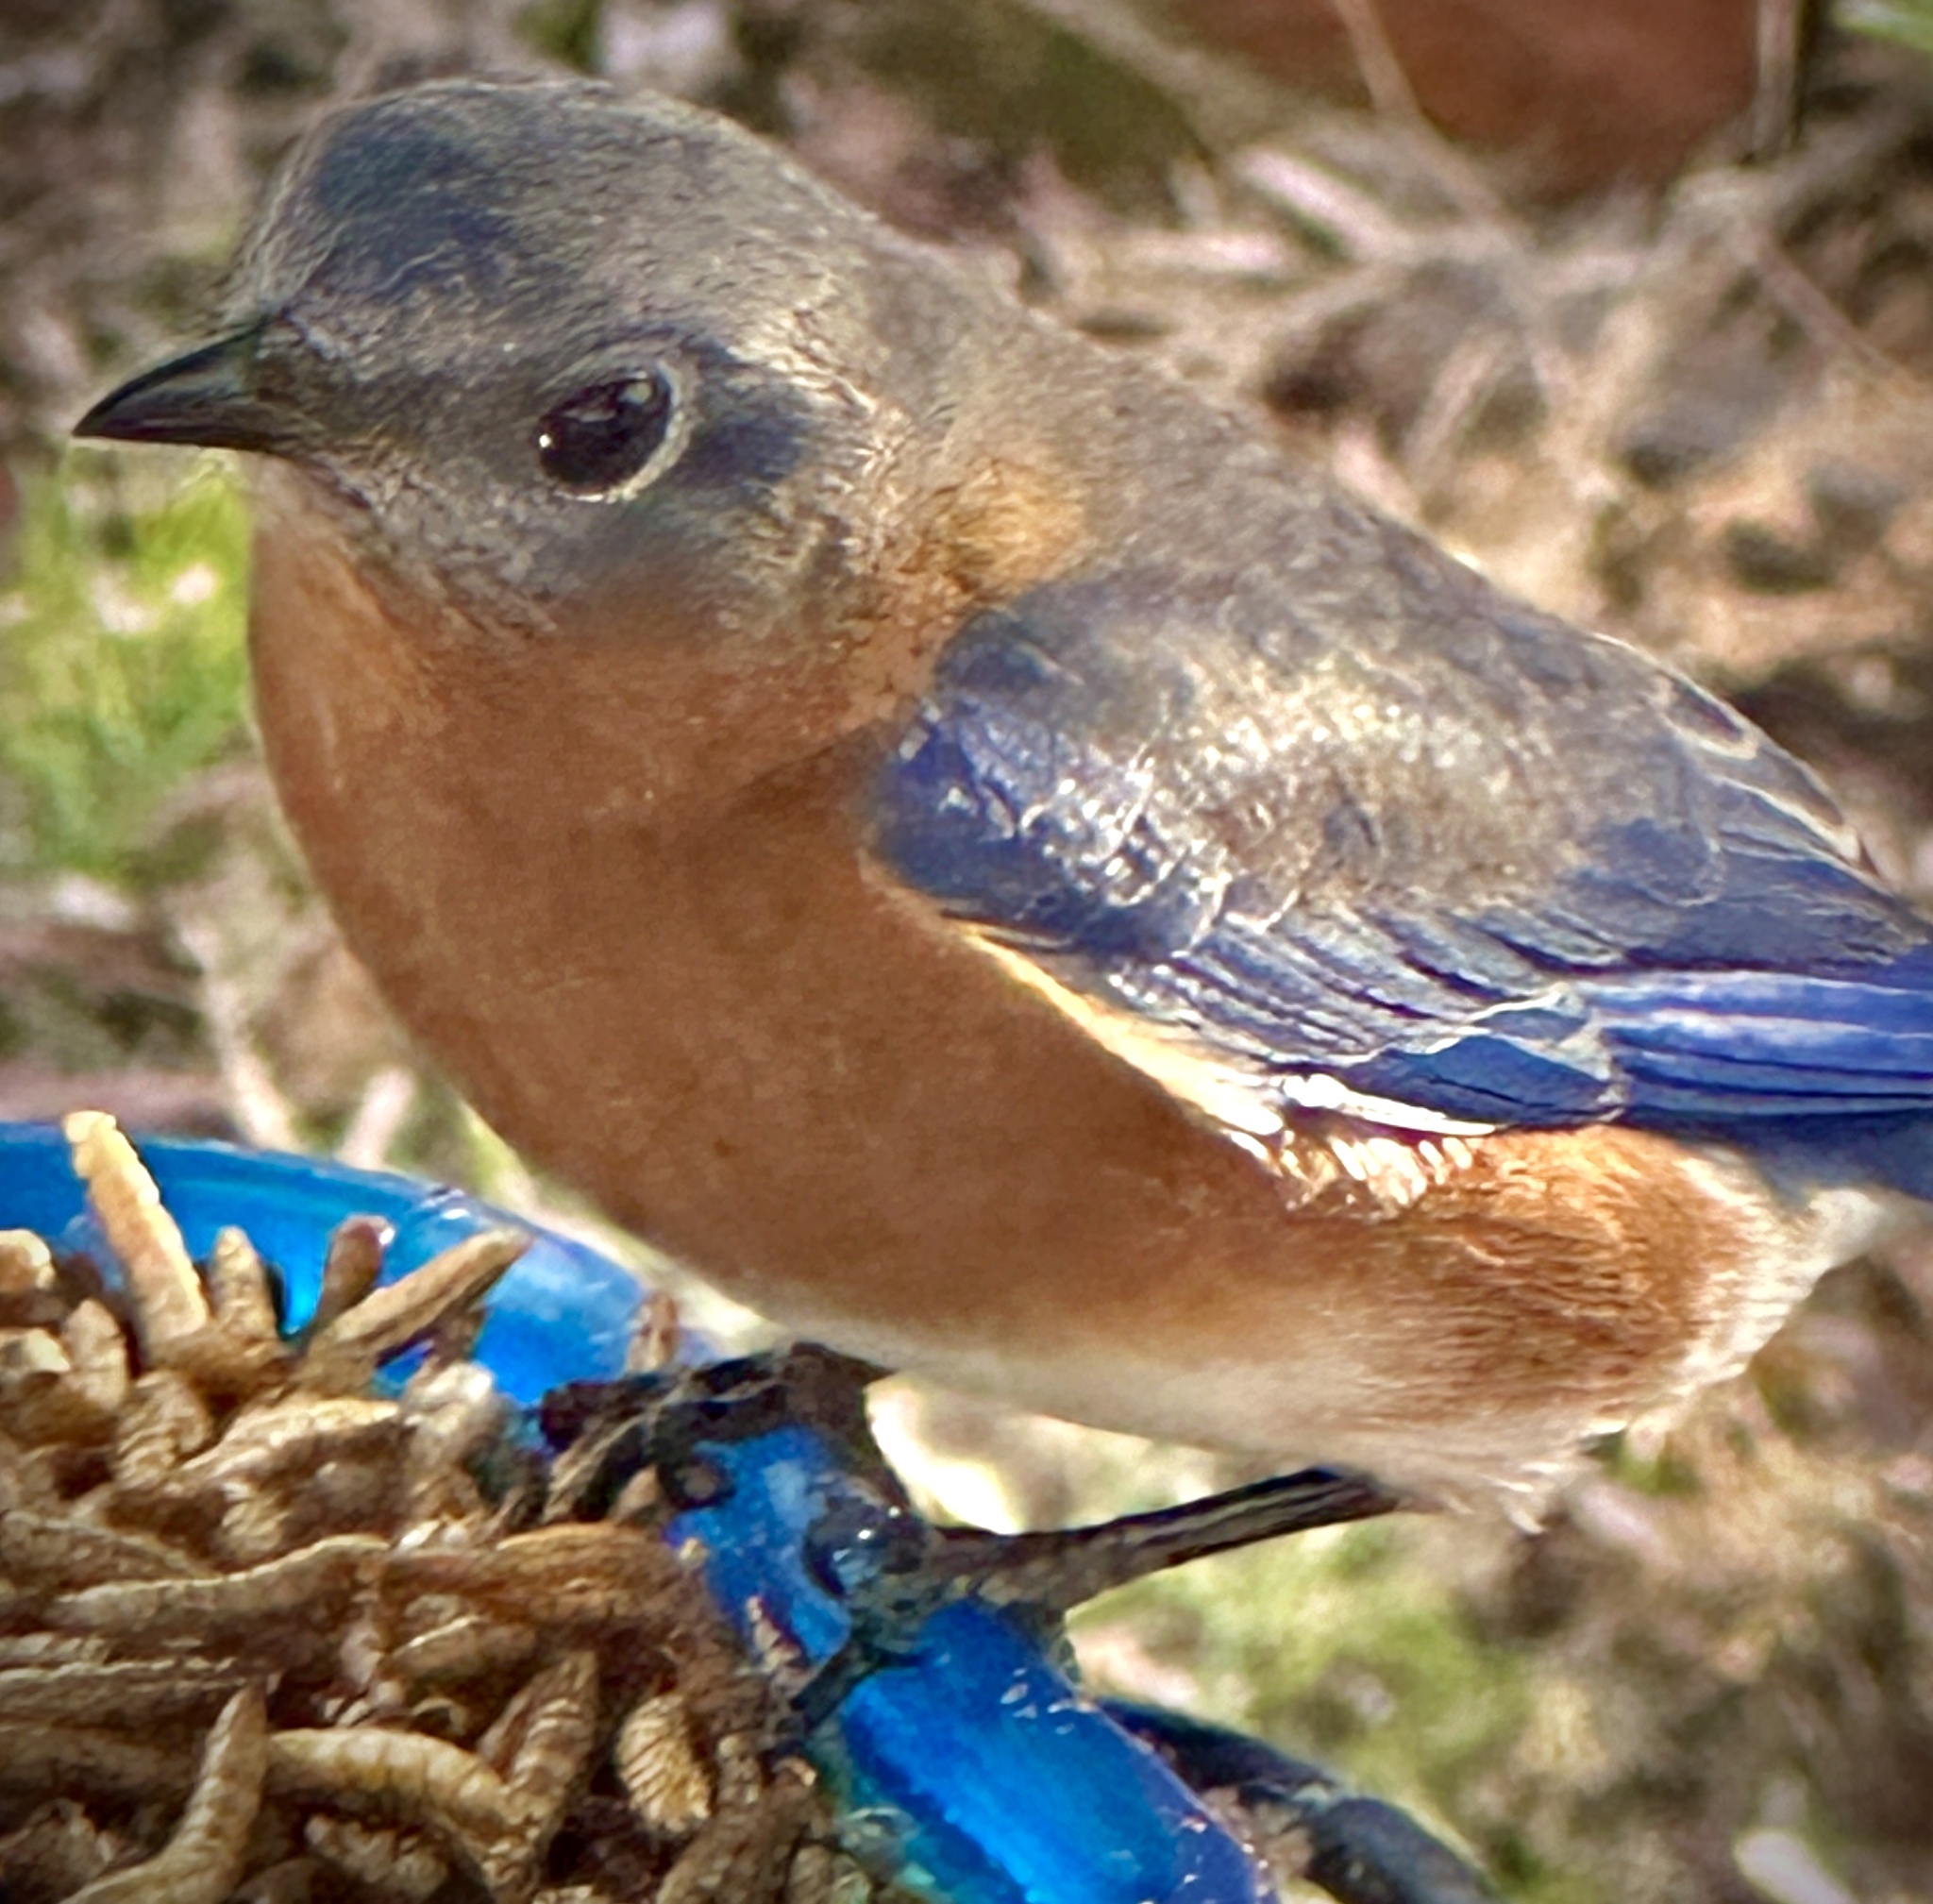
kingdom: Animalia
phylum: Chordata
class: Aves
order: Passeriformes
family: Turdidae
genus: Sialia
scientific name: Sialia sialis
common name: Eastern bluebird
